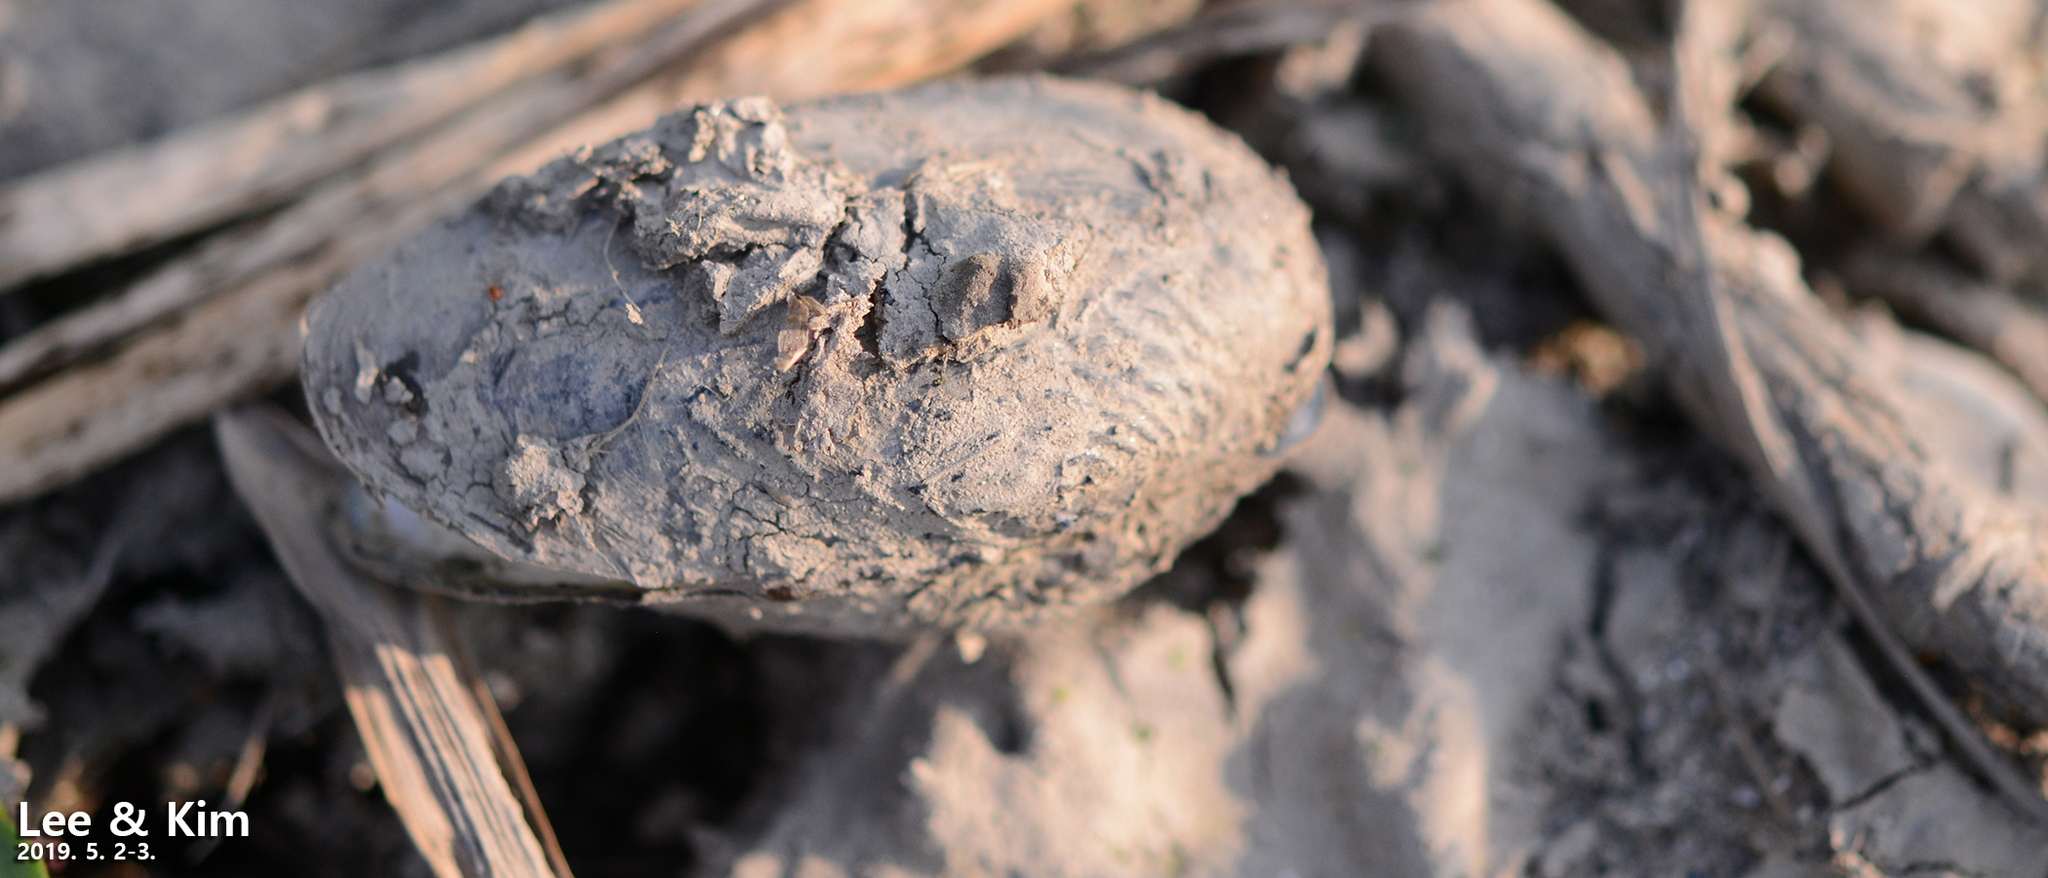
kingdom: Animalia
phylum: Mollusca
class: Bivalvia
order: Unionida
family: Unionidae
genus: Nodularia
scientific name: Nodularia douglasiae
